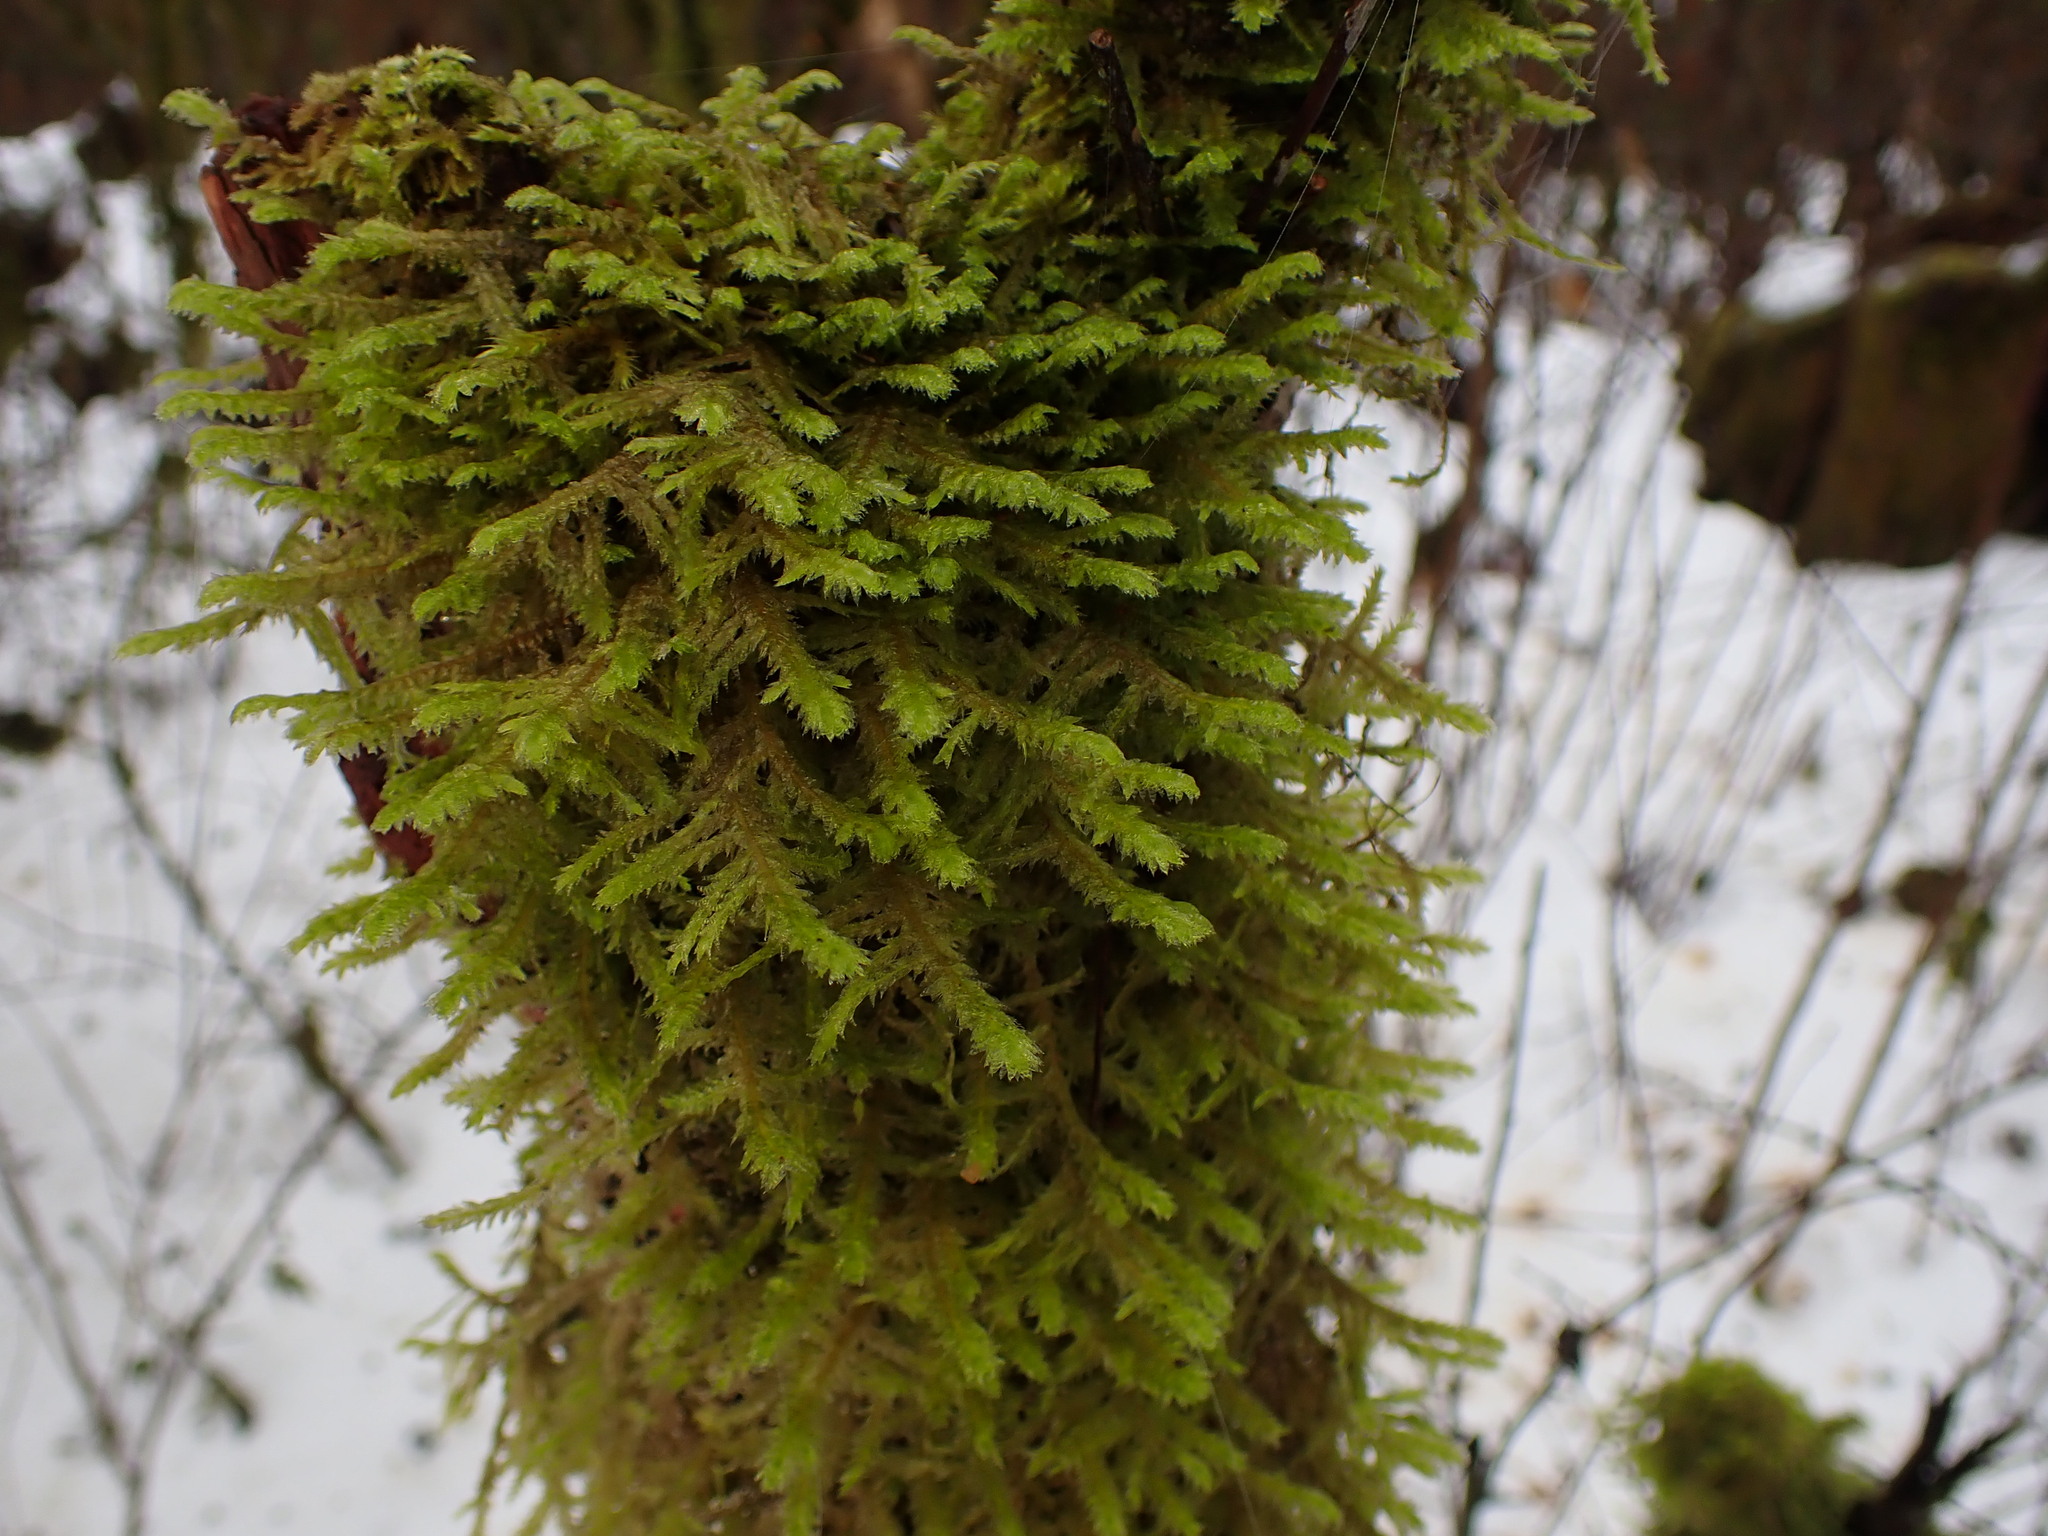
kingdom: Plantae
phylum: Bryophyta
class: Bryopsida
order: Hypnales
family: Neckeraceae
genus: Neckera
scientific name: Neckera douglasii
